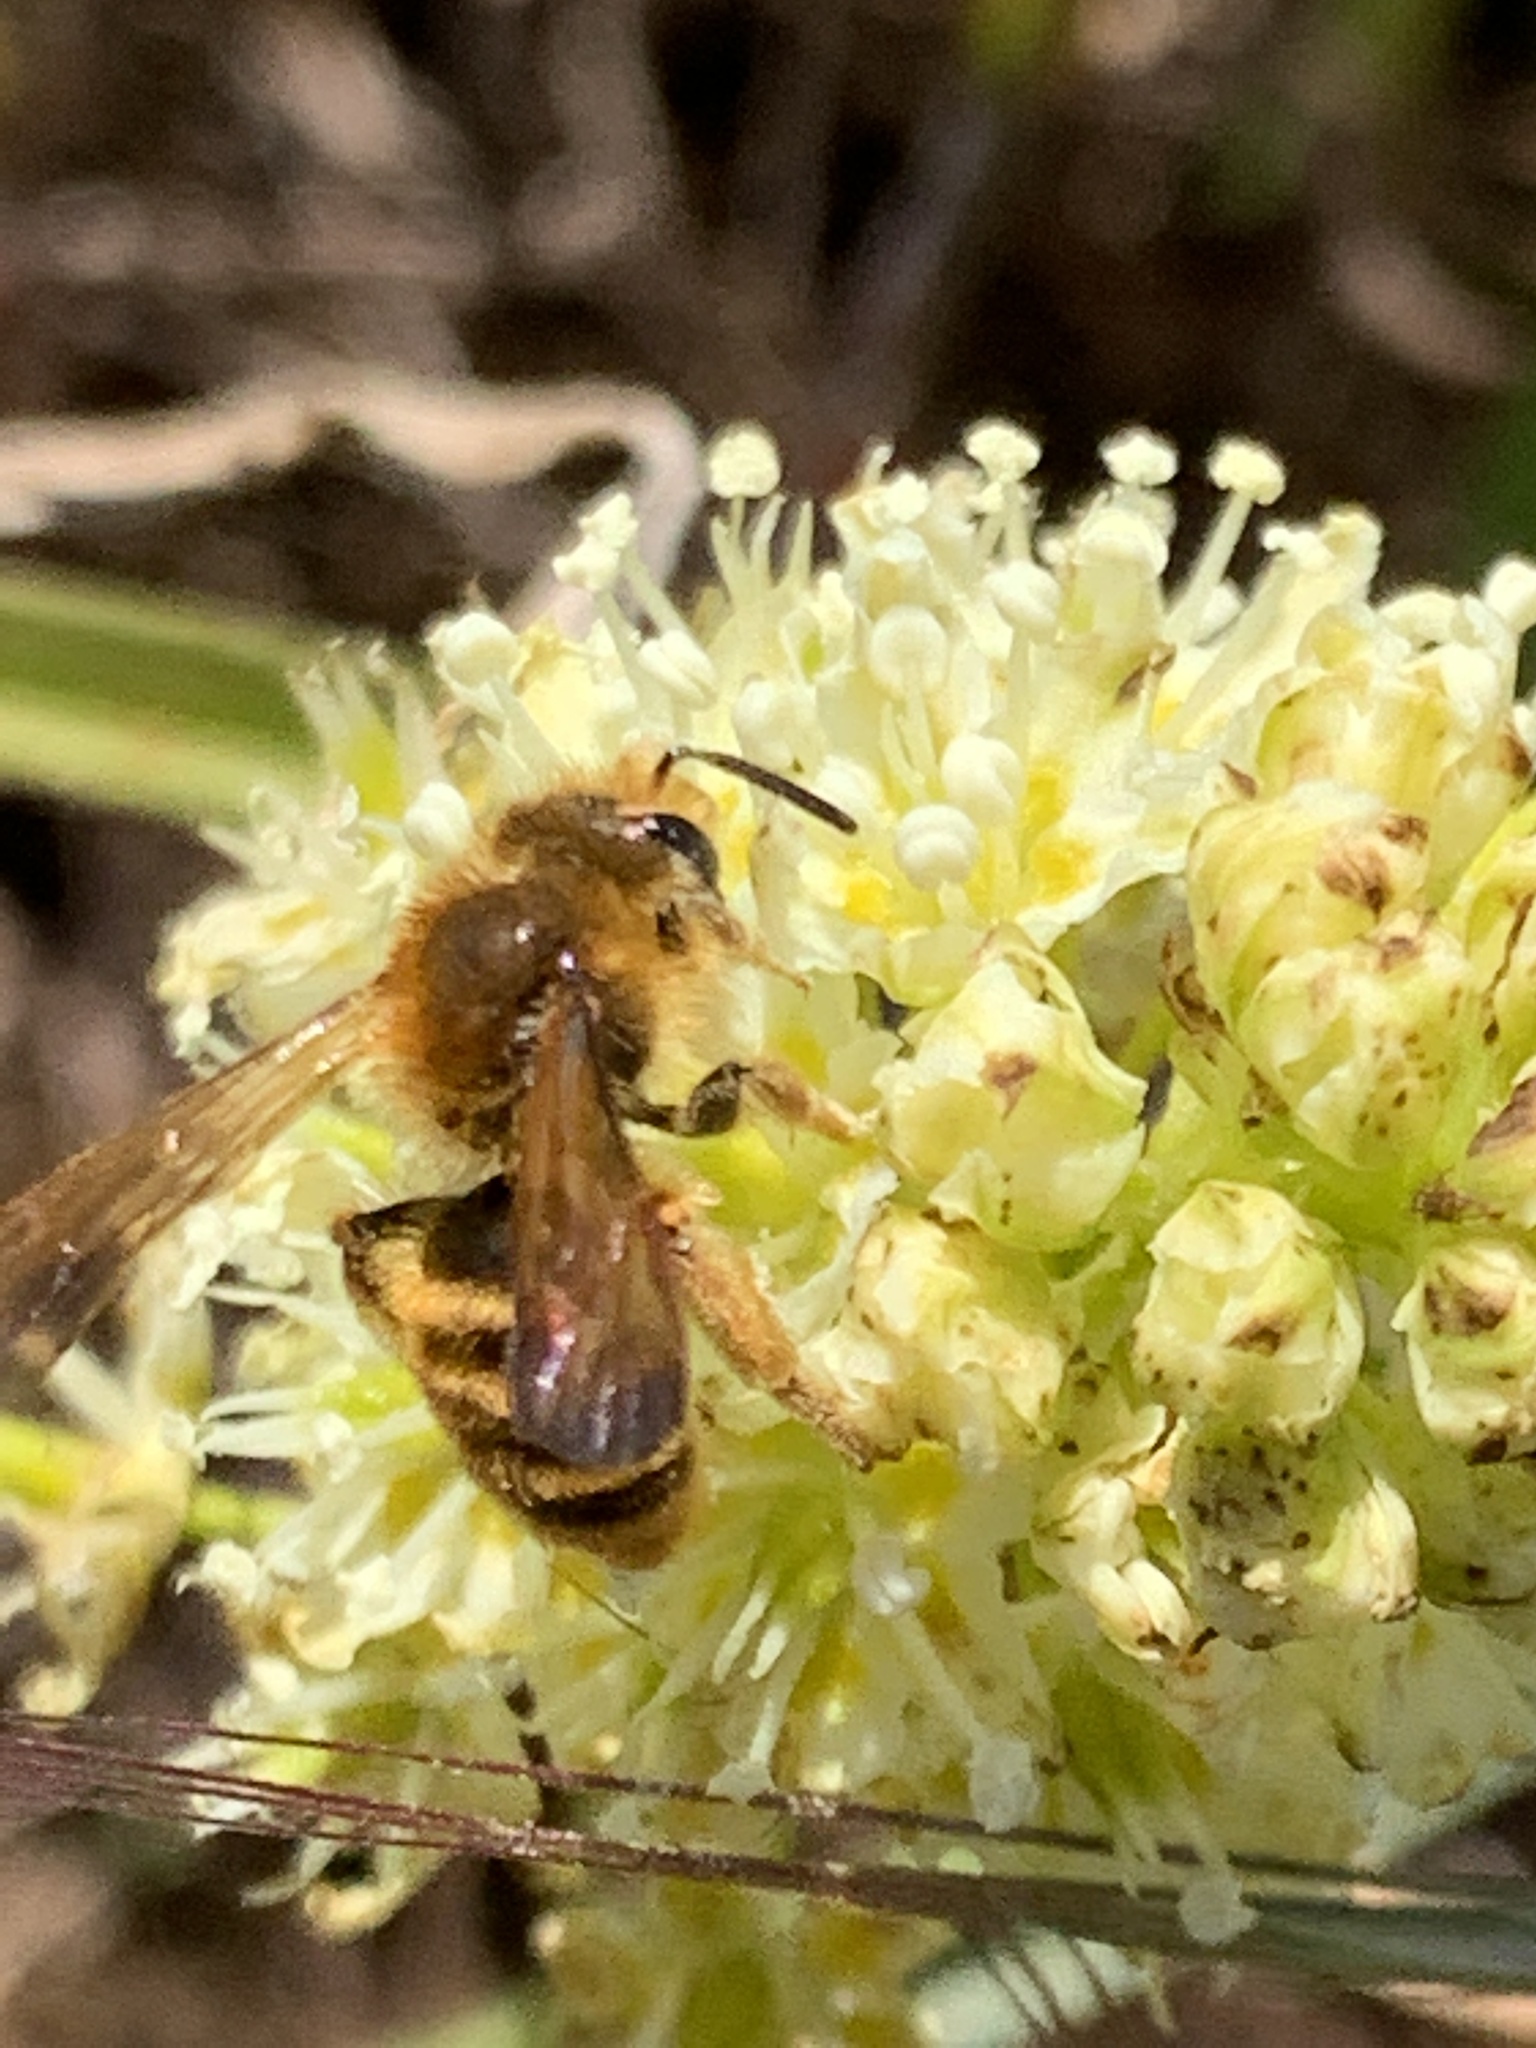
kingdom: Animalia
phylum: Arthropoda
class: Insecta
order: Hymenoptera
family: Andrenidae
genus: Andrena
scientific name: Andrena astragali
